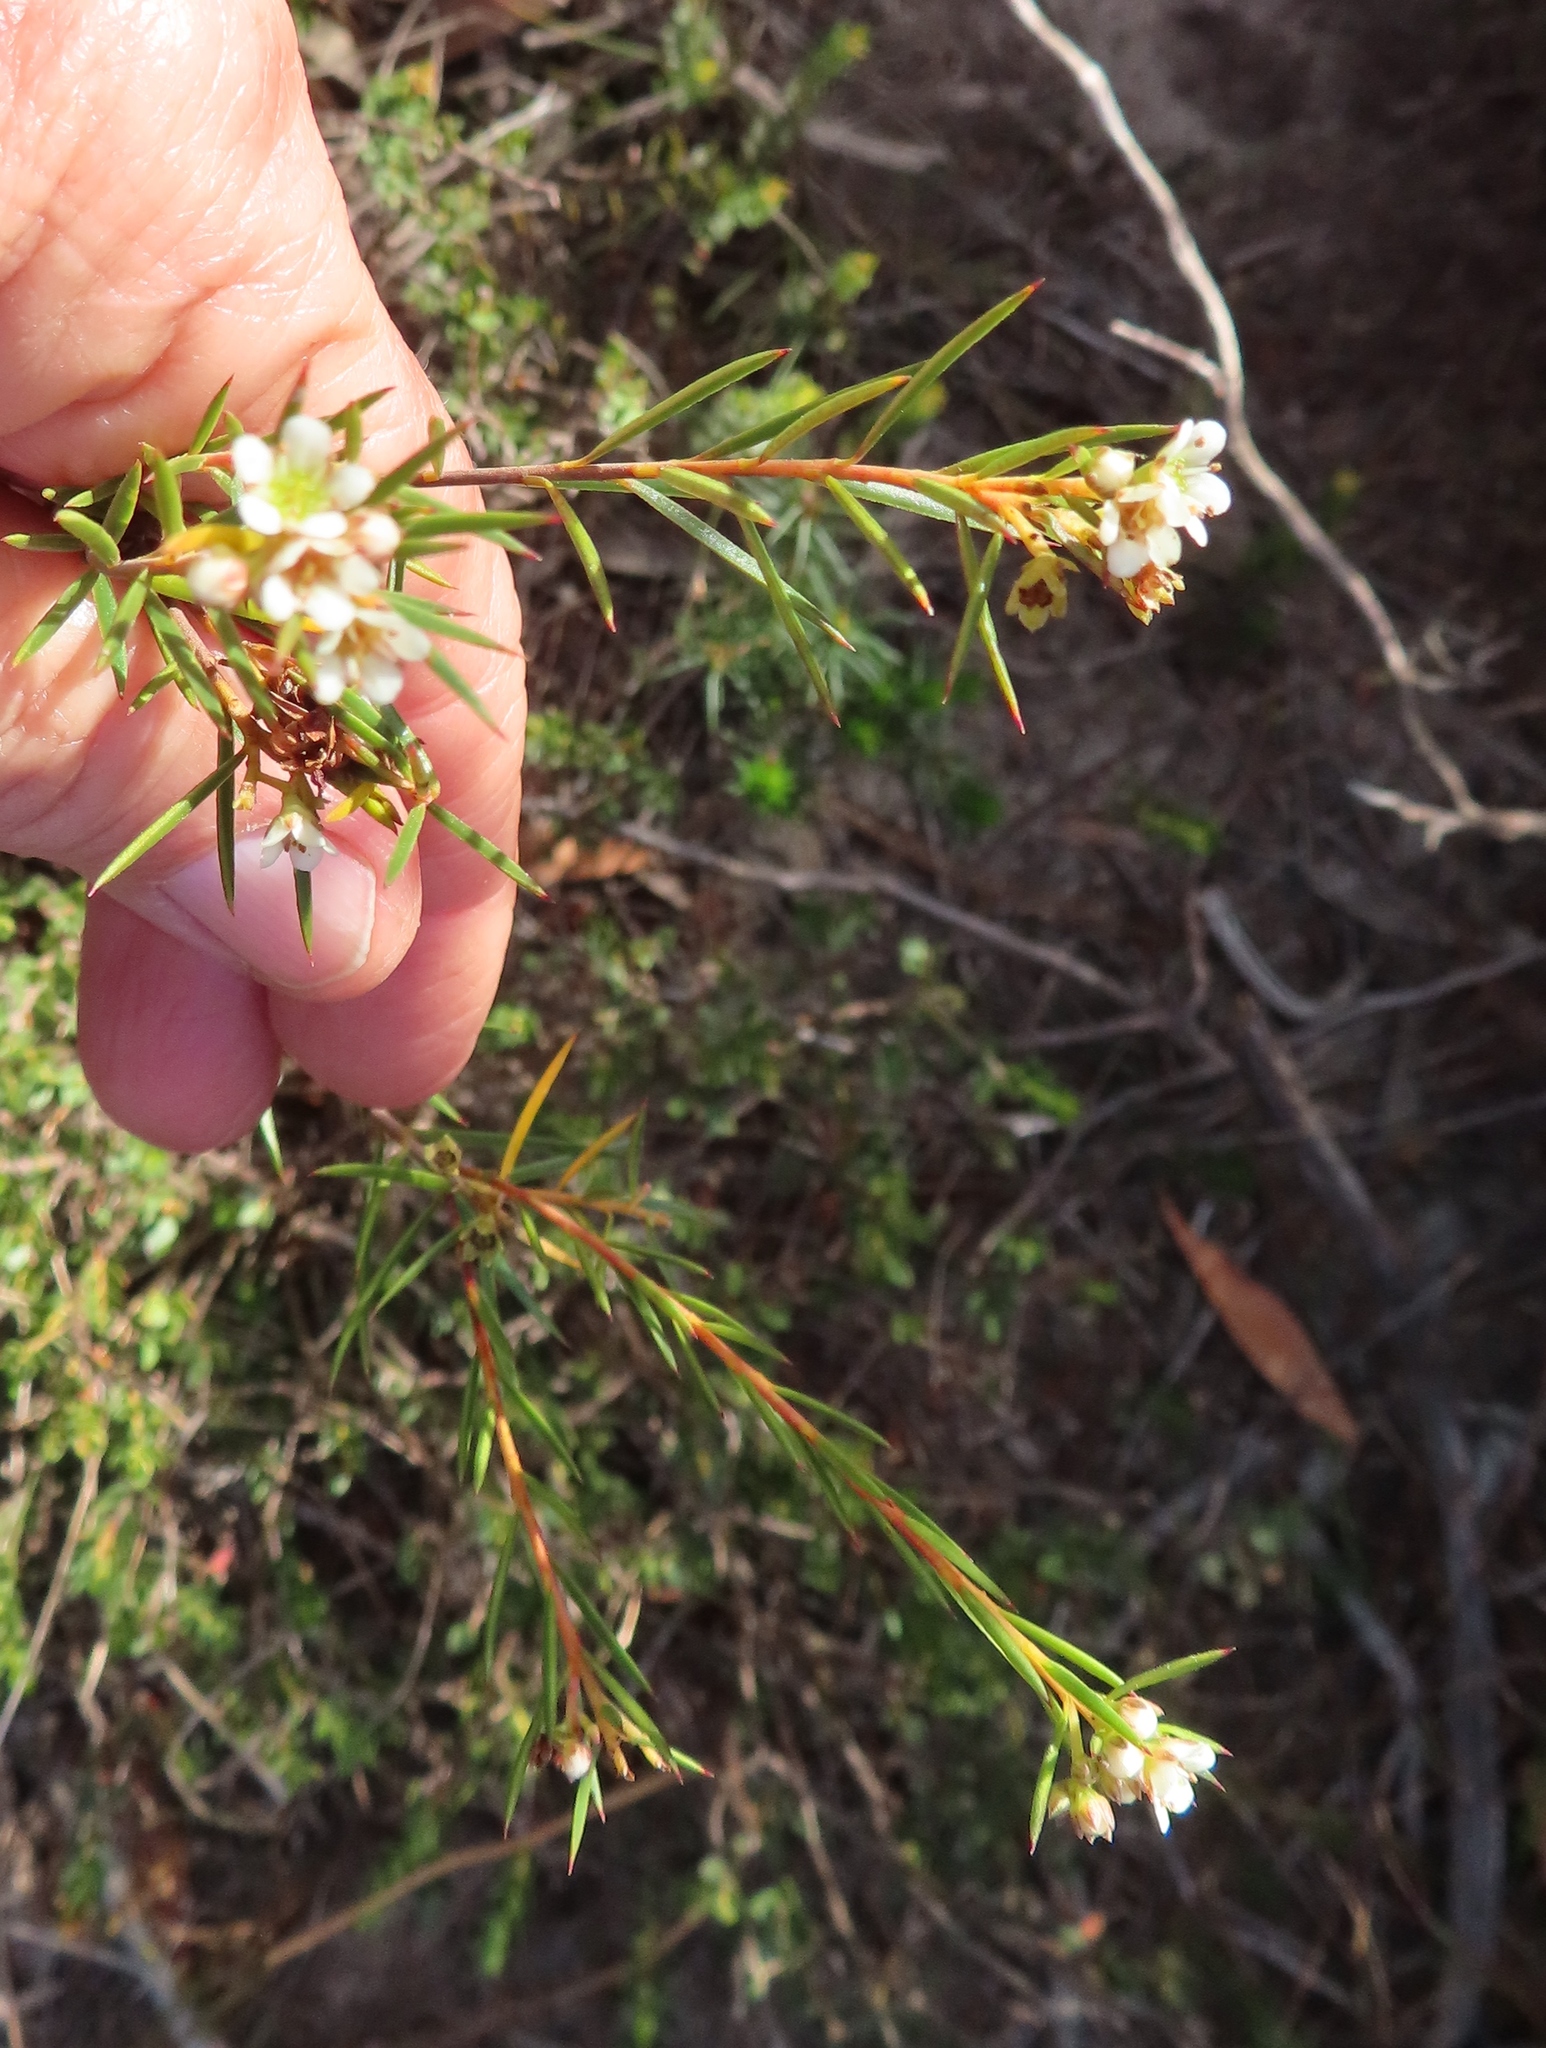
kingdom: Plantae
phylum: Tracheophyta
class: Magnoliopsida
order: Sapindales
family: Rutaceae
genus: Diosma
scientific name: Diosma hirsuta
